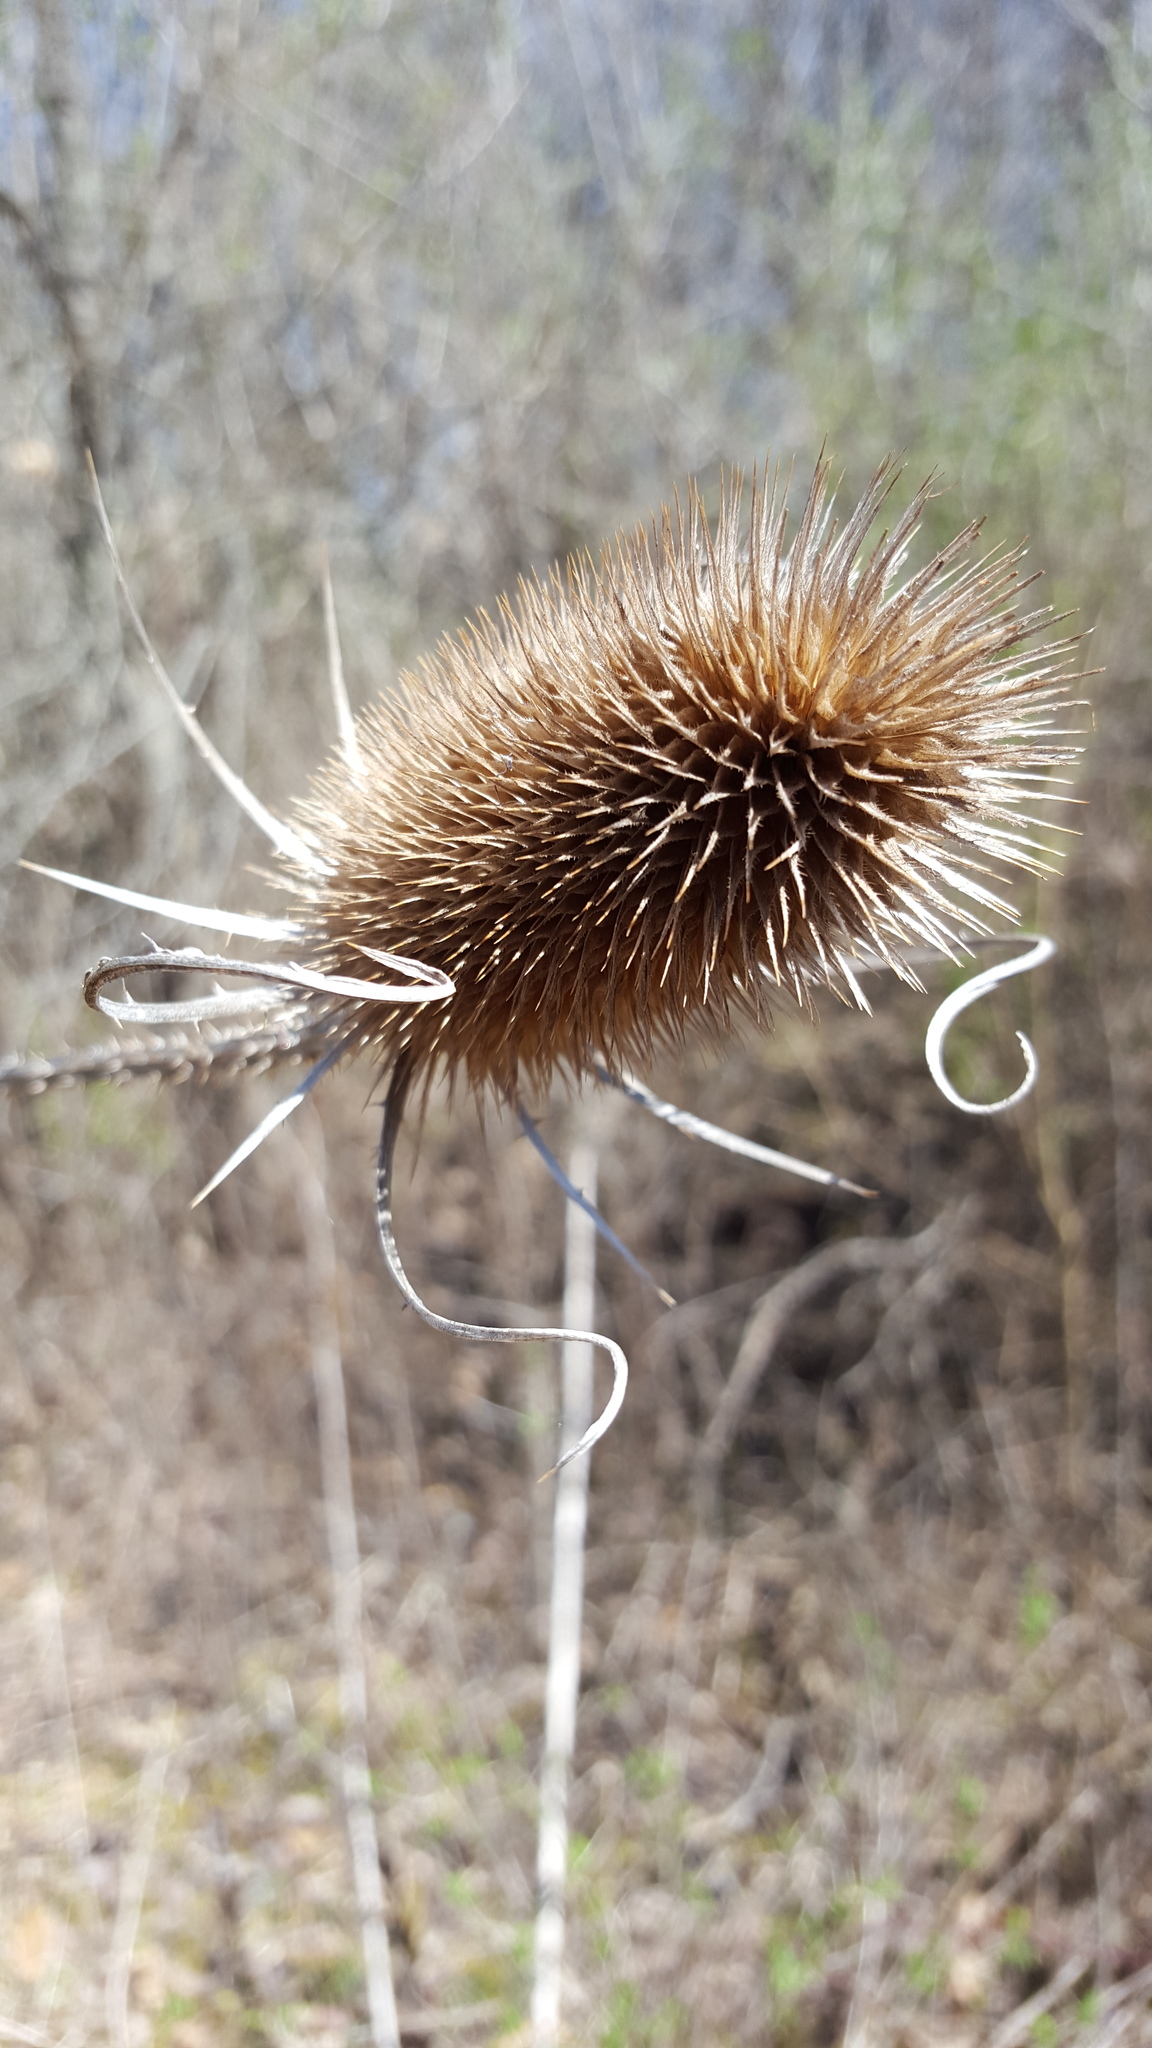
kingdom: Plantae
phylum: Tracheophyta
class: Magnoliopsida
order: Dipsacales
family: Caprifoliaceae
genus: Dipsacus
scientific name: Dipsacus fullonum
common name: Teasel
